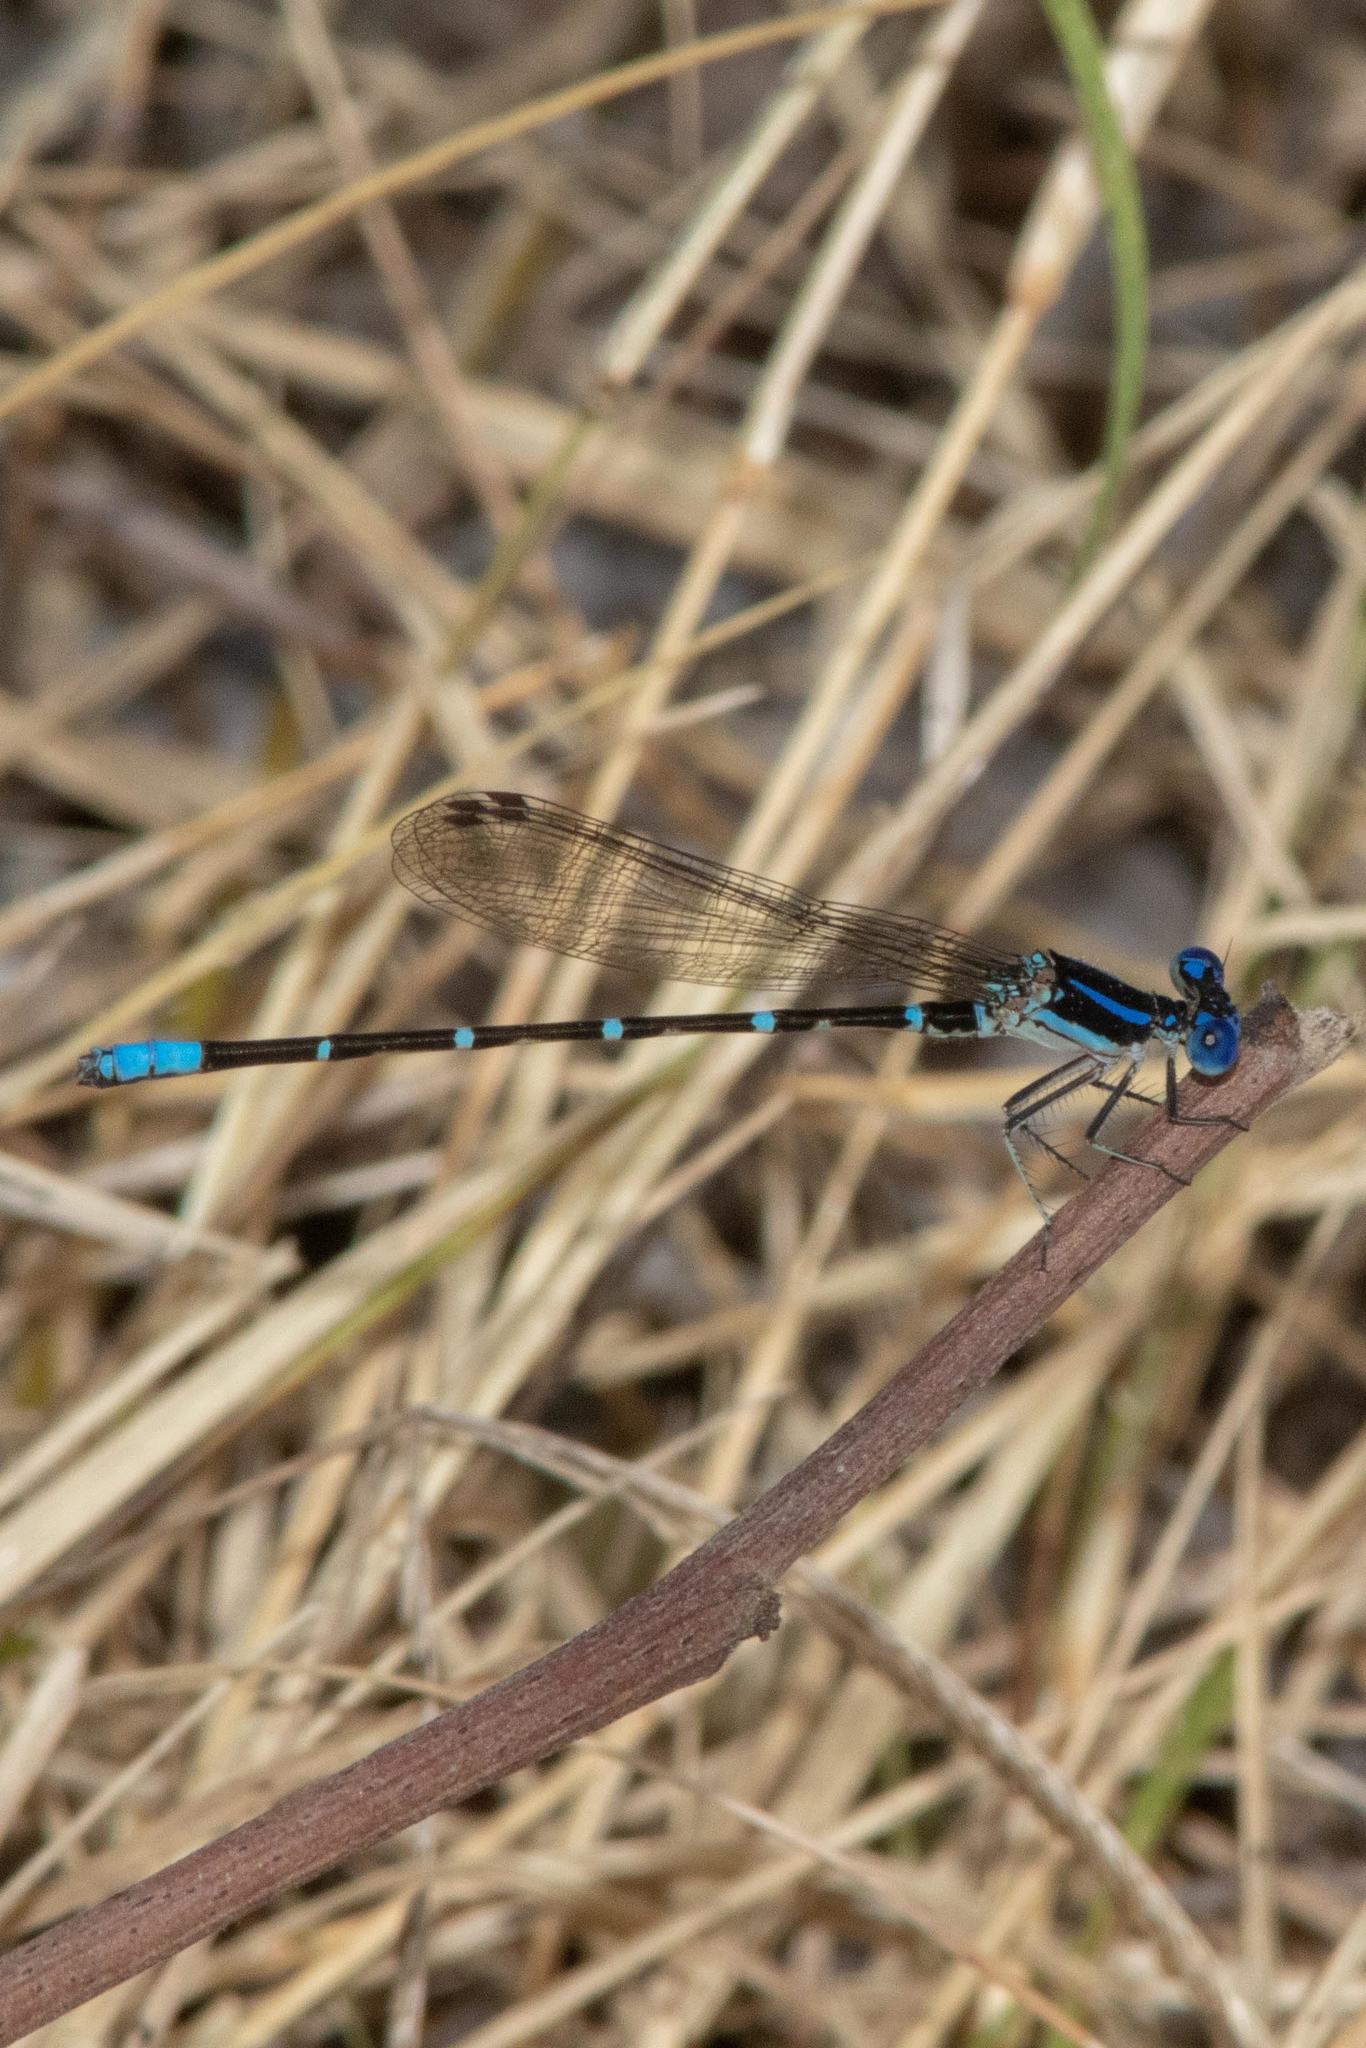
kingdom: Animalia
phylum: Arthropoda
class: Insecta
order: Odonata
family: Coenagrionidae
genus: Argia
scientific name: Argia sedula
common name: Blue-ringed dancer
